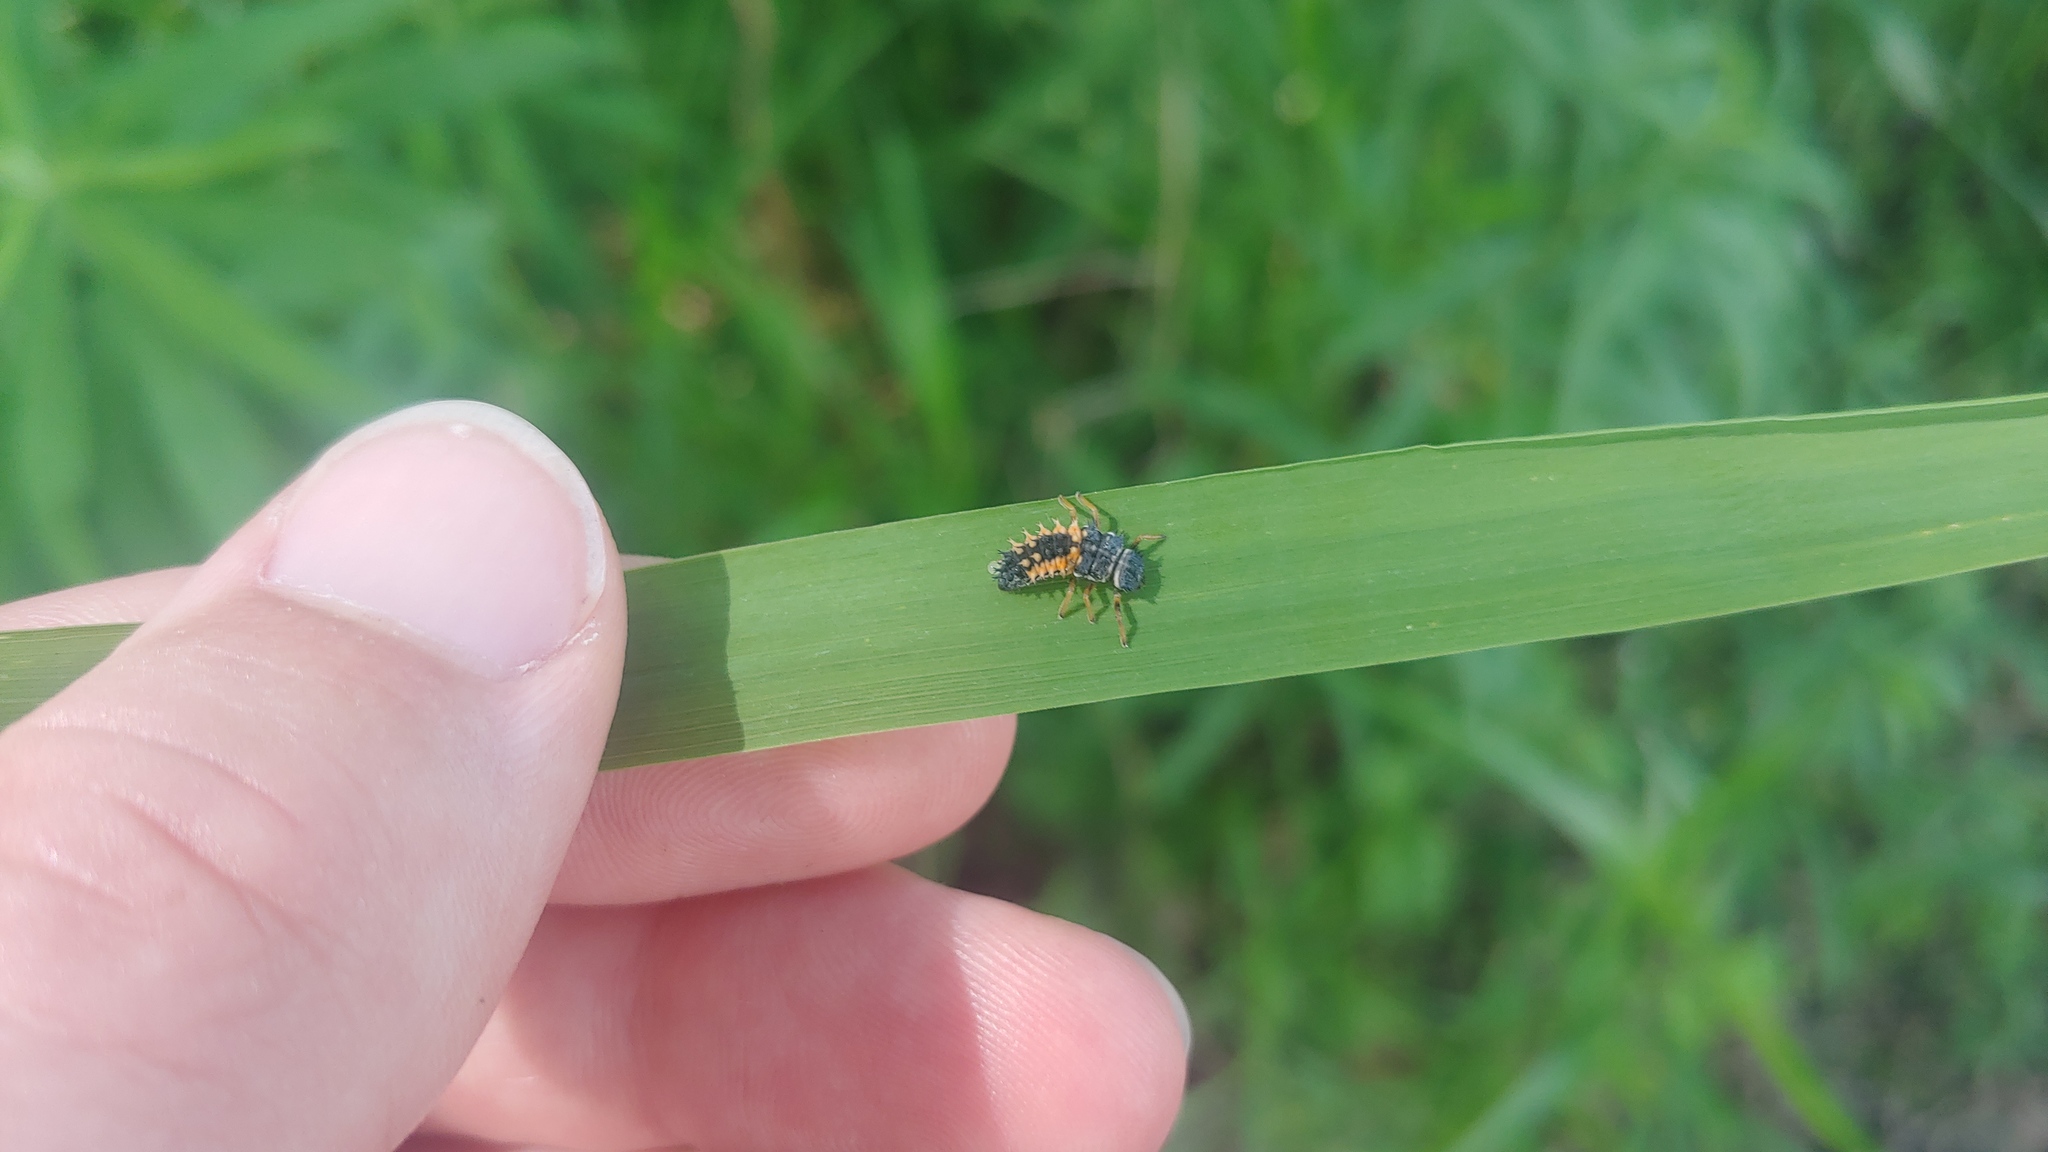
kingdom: Animalia
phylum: Arthropoda
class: Insecta
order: Coleoptera
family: Coccinellidae
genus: Harmonia
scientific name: Harmonia axyridis
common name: Harlequin ladybird
